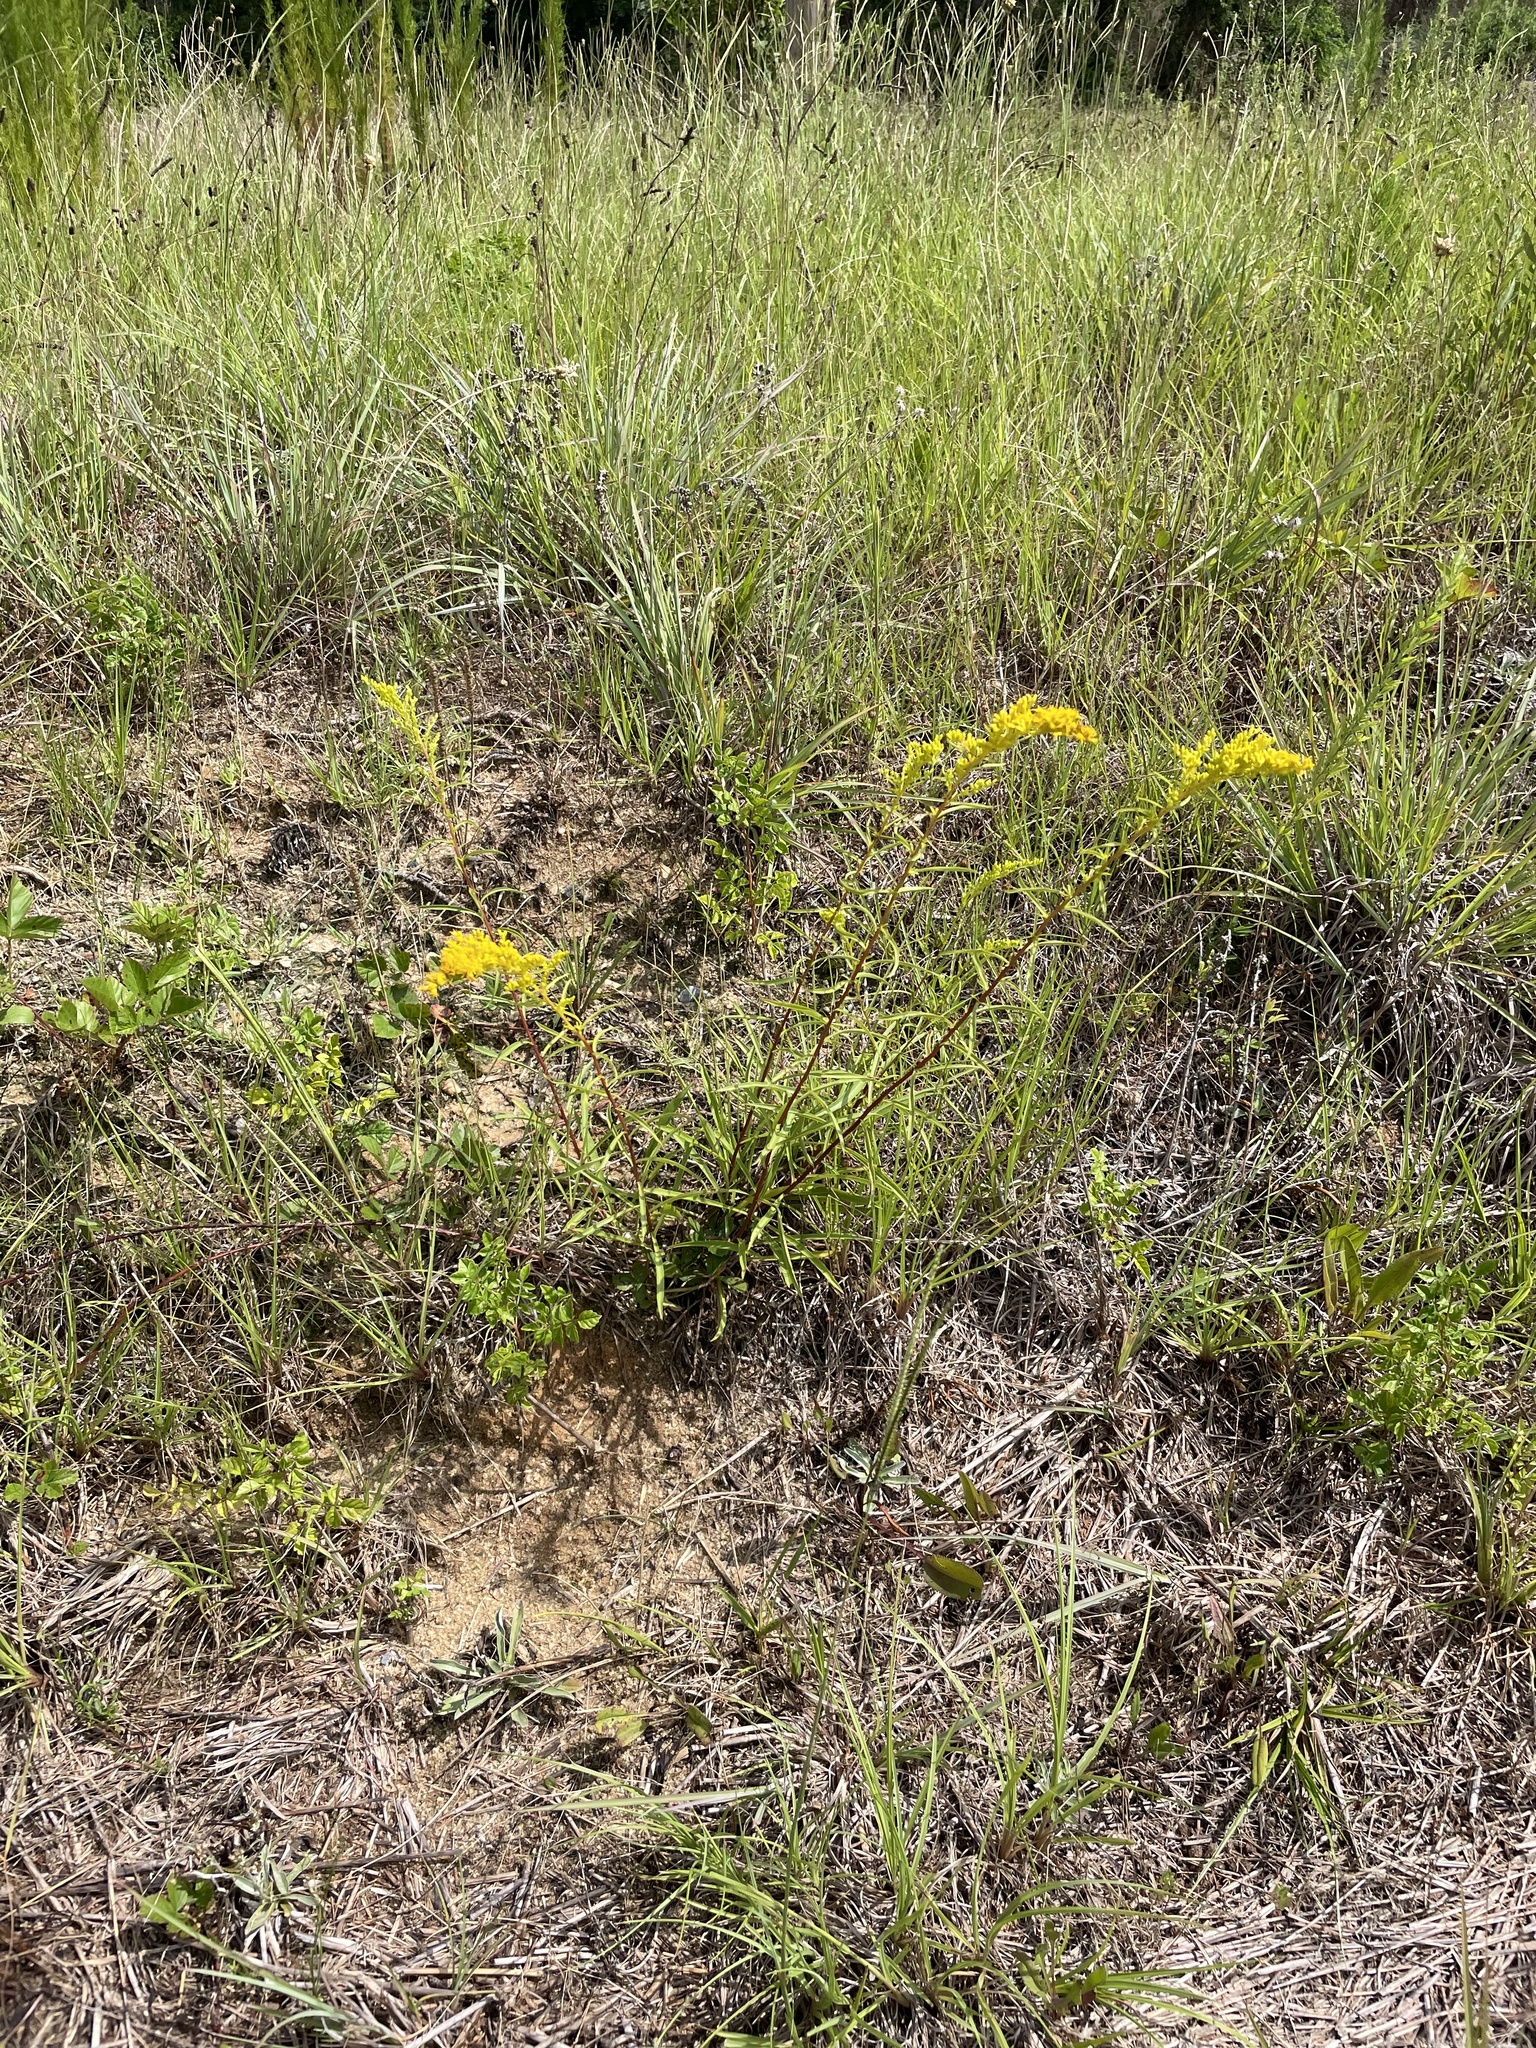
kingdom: Plantae
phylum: Tracheophyta
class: Magnoliopsida
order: Asterales
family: Asteraceae
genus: Solidago
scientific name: Solidago pinetorum
